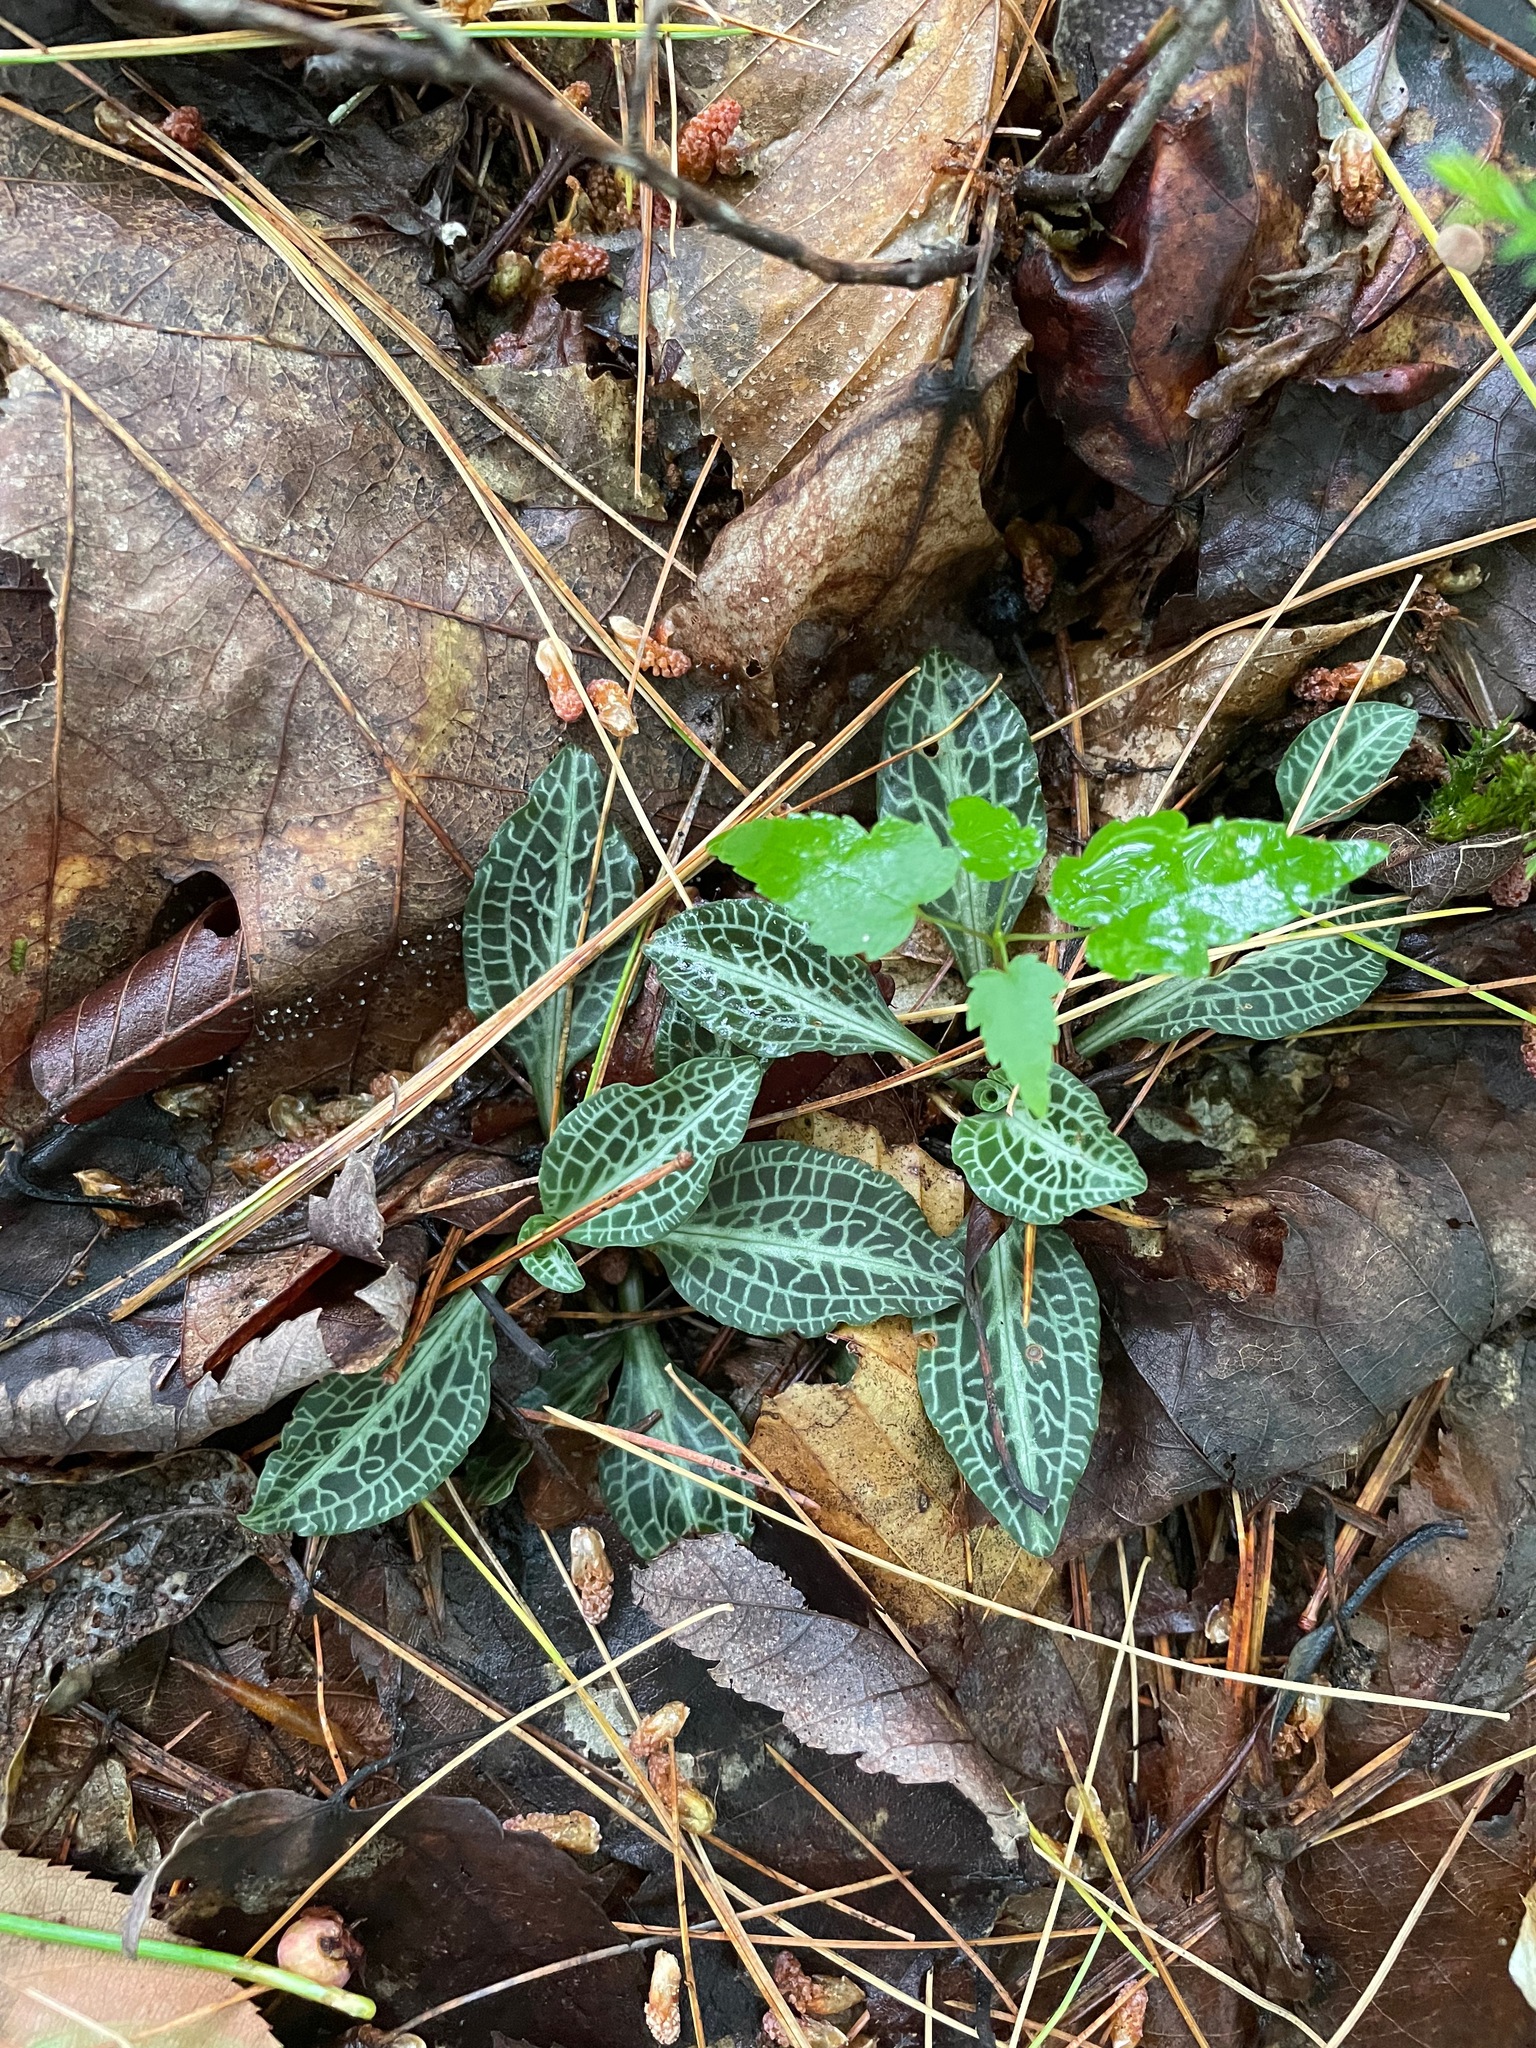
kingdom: Plantae
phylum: Tracheophyta
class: Liliopsida
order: Asparagales
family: Orchidaceae
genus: Goodyera
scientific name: Goodyera pubescens
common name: Downy rattlesnake-plantain
